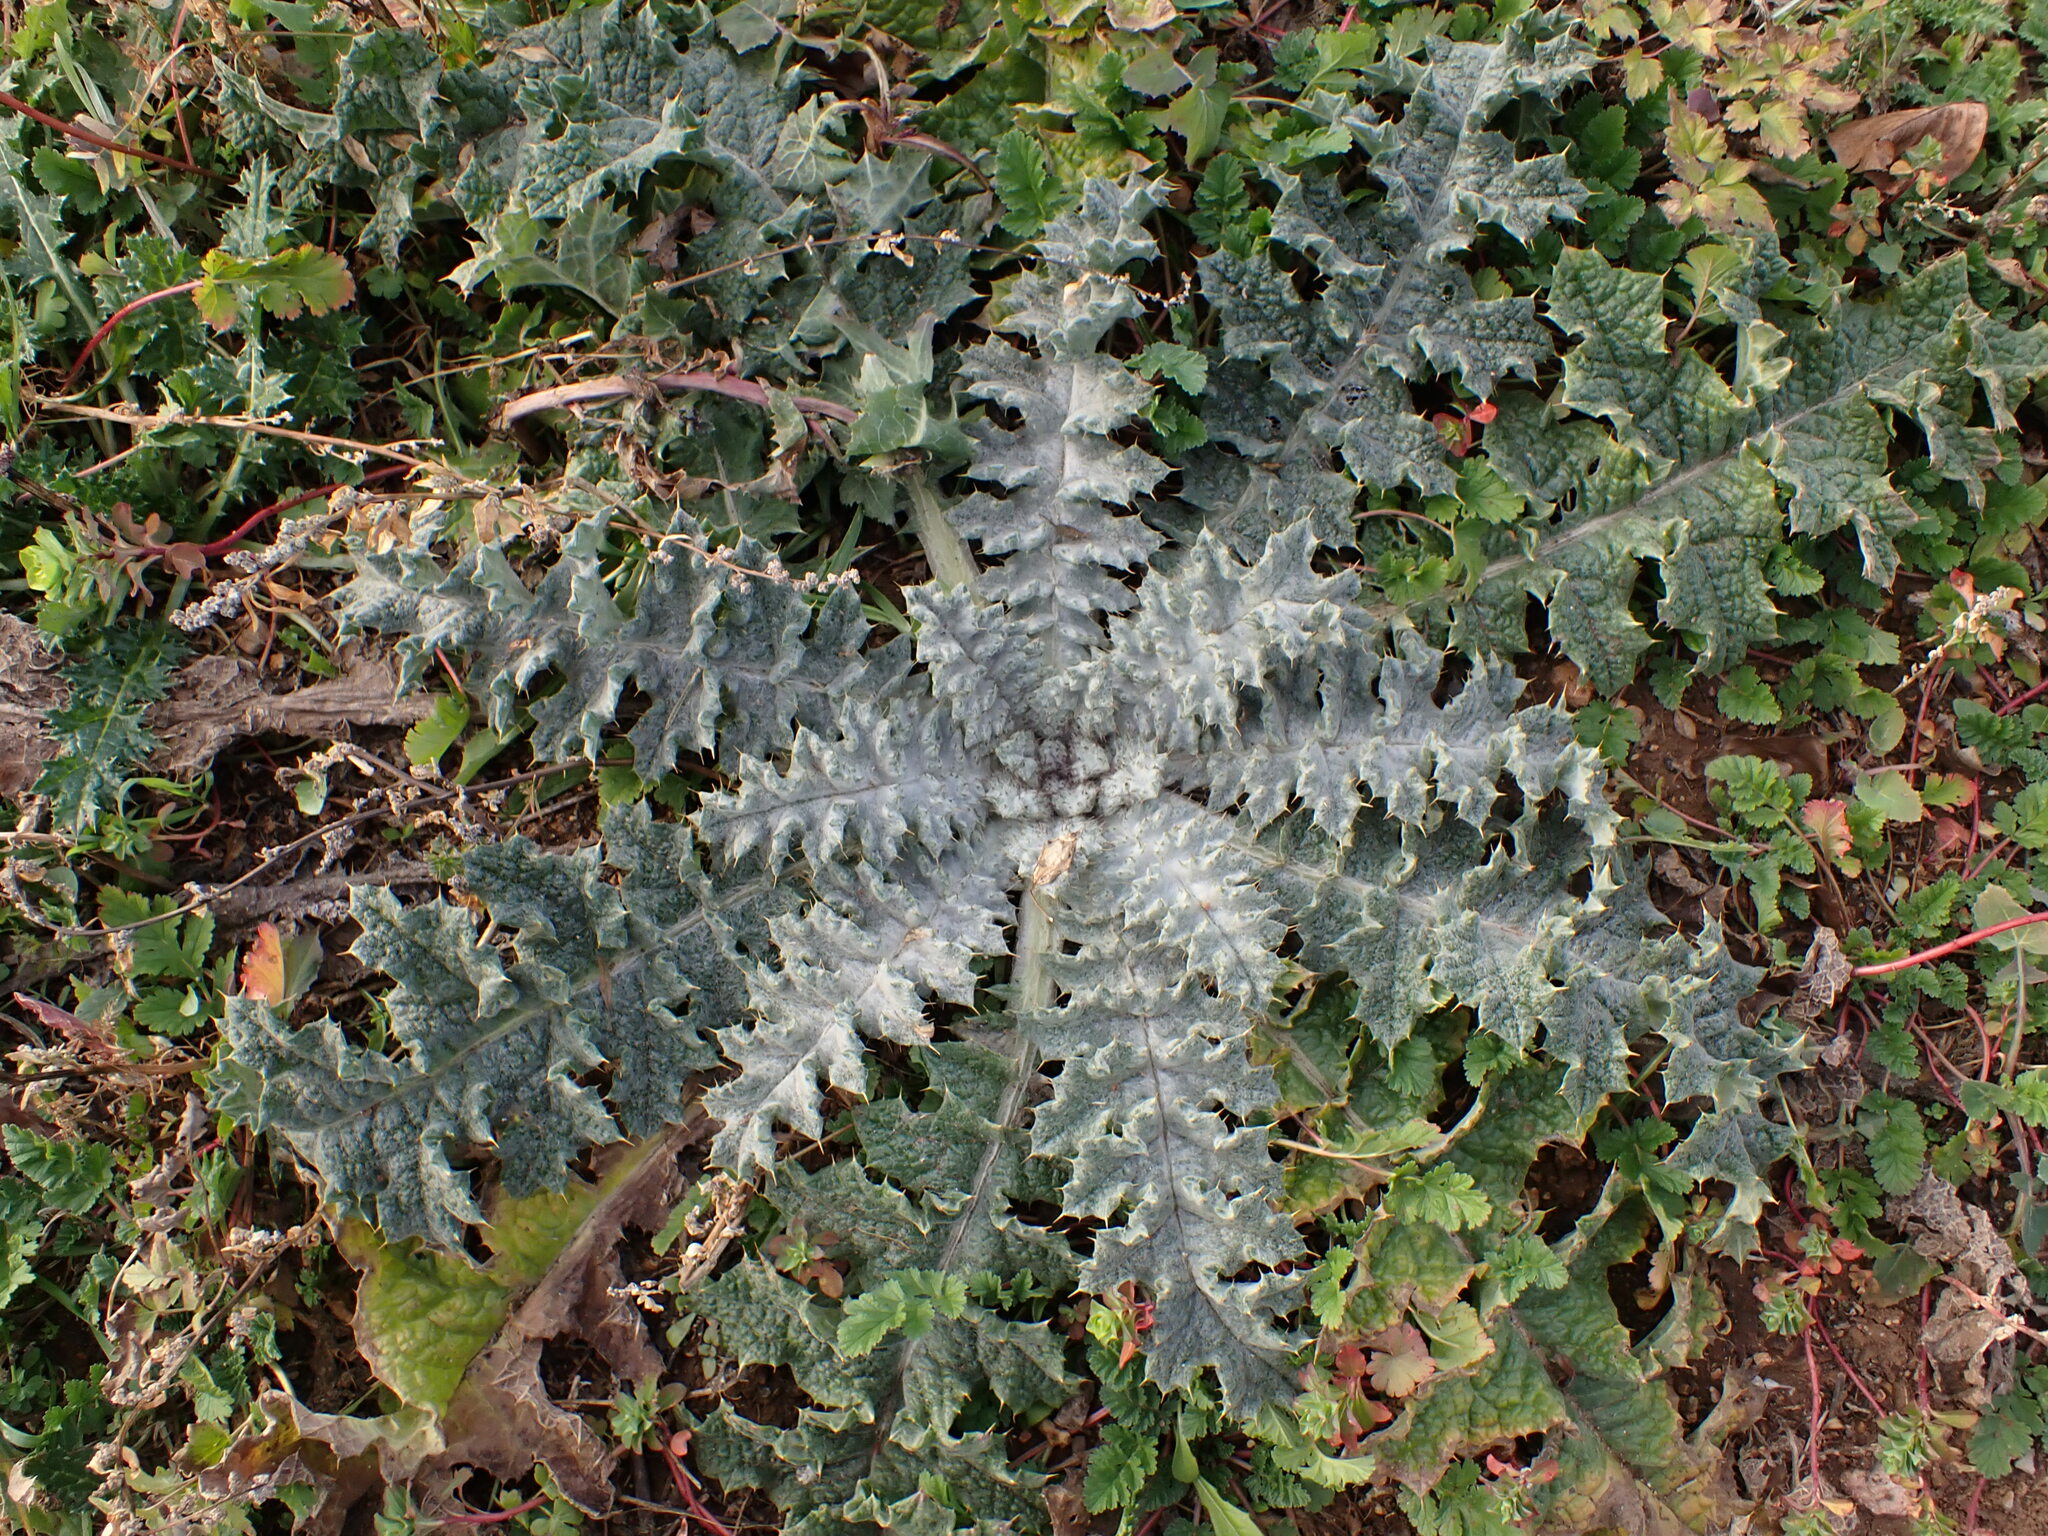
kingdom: Plantae
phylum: Tracheophyta
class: Magnoliopsida
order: Asterales
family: Asteraceae
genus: Onopordum
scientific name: Onopordum illyricum
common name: Illyrian thistle
